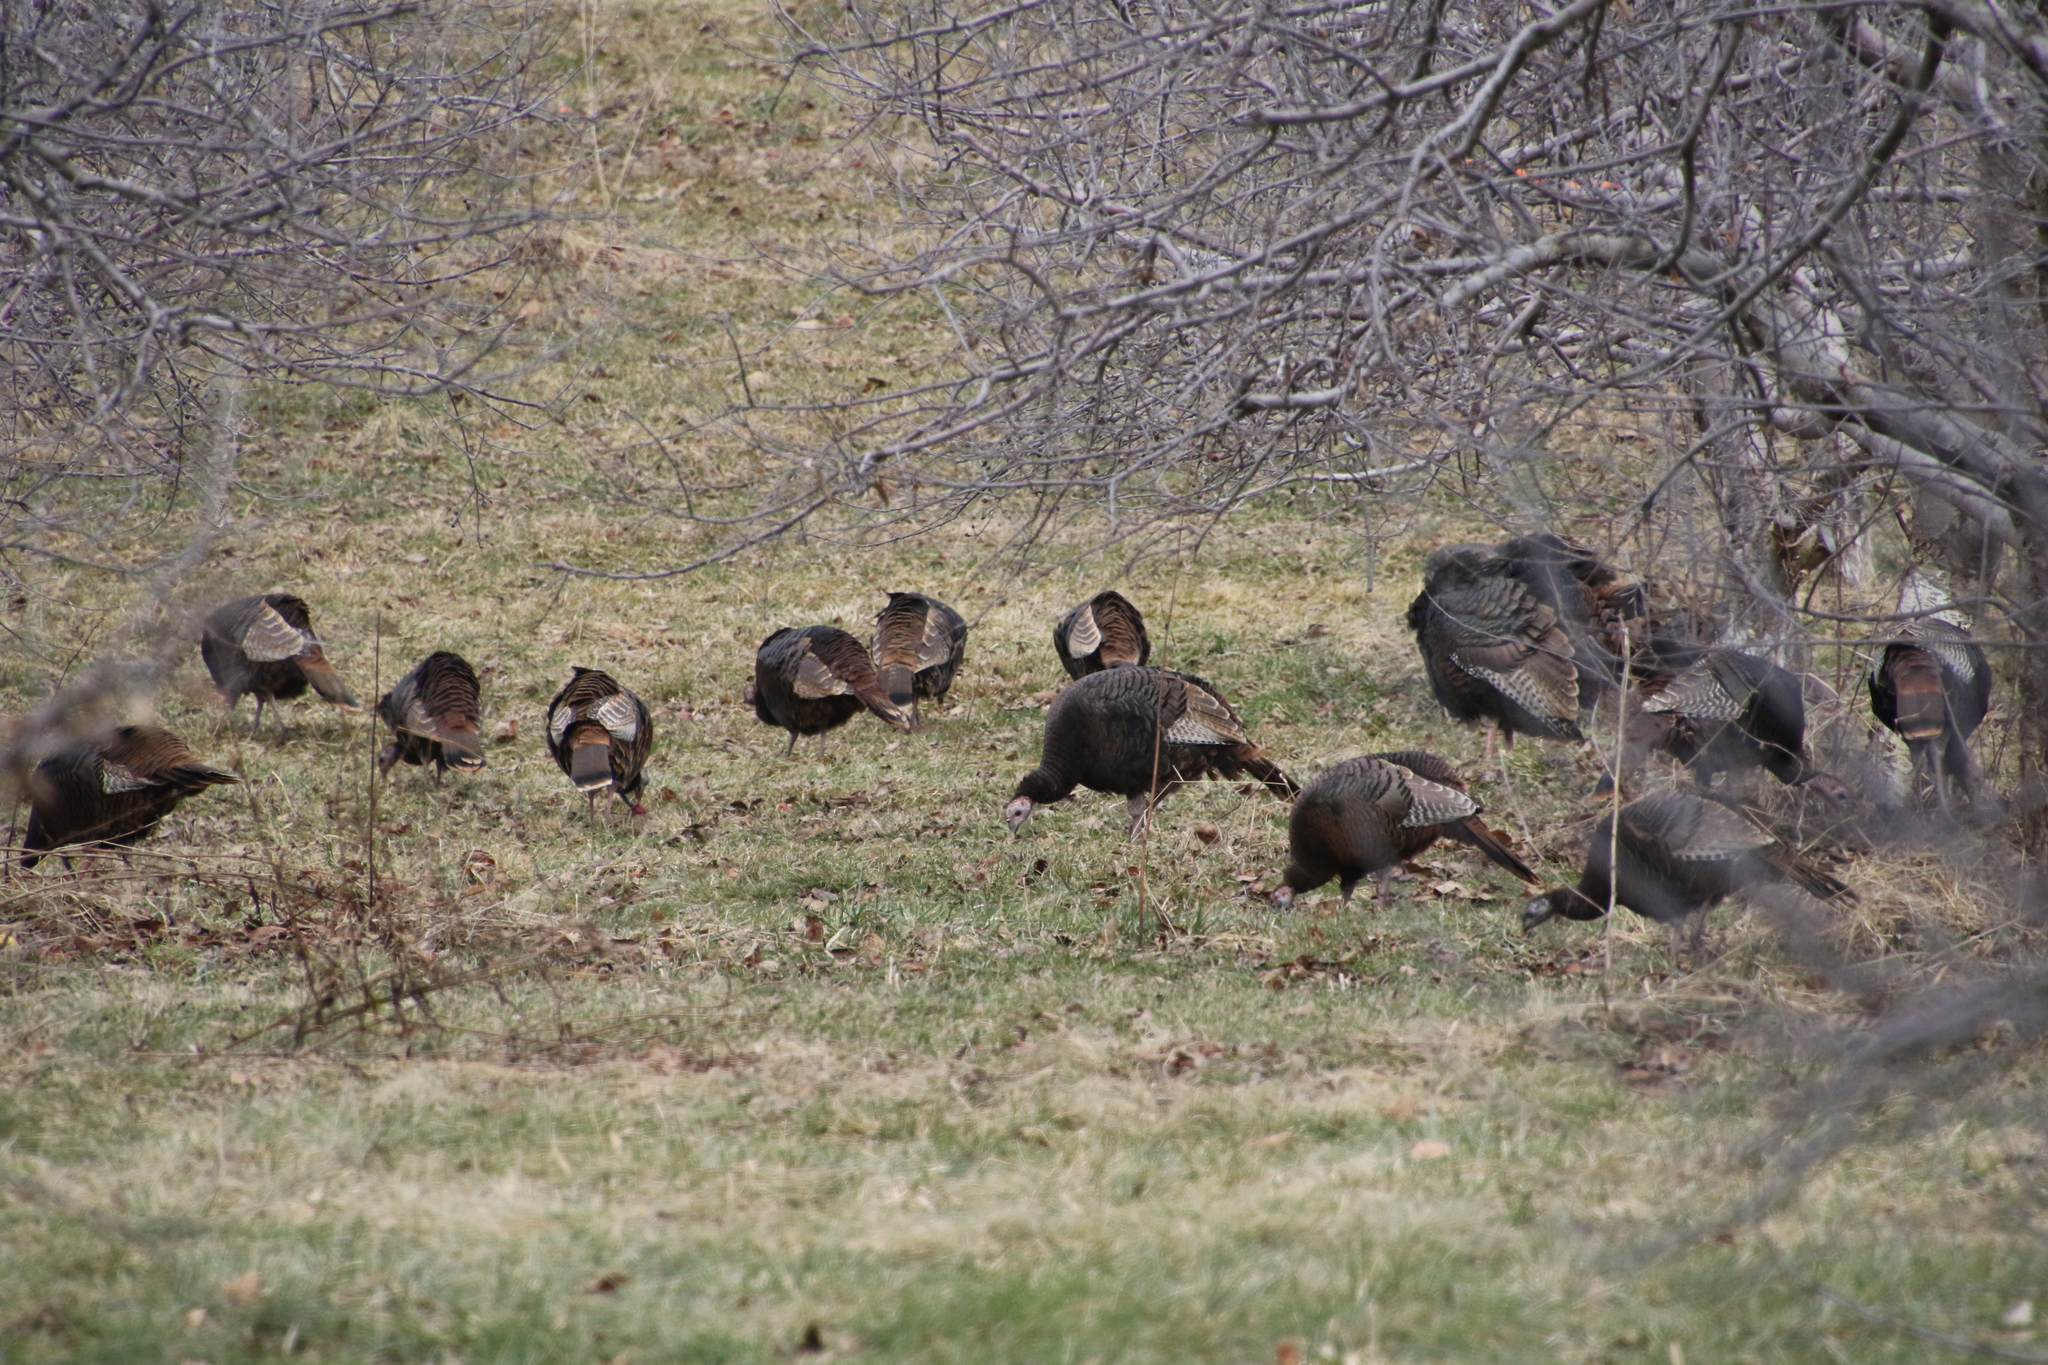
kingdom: Animalia
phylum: Chordata
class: Aves
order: Galliformes
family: Phasianidae
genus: Meleagris
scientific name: Meleagris gallopavo
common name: Wild turkey
